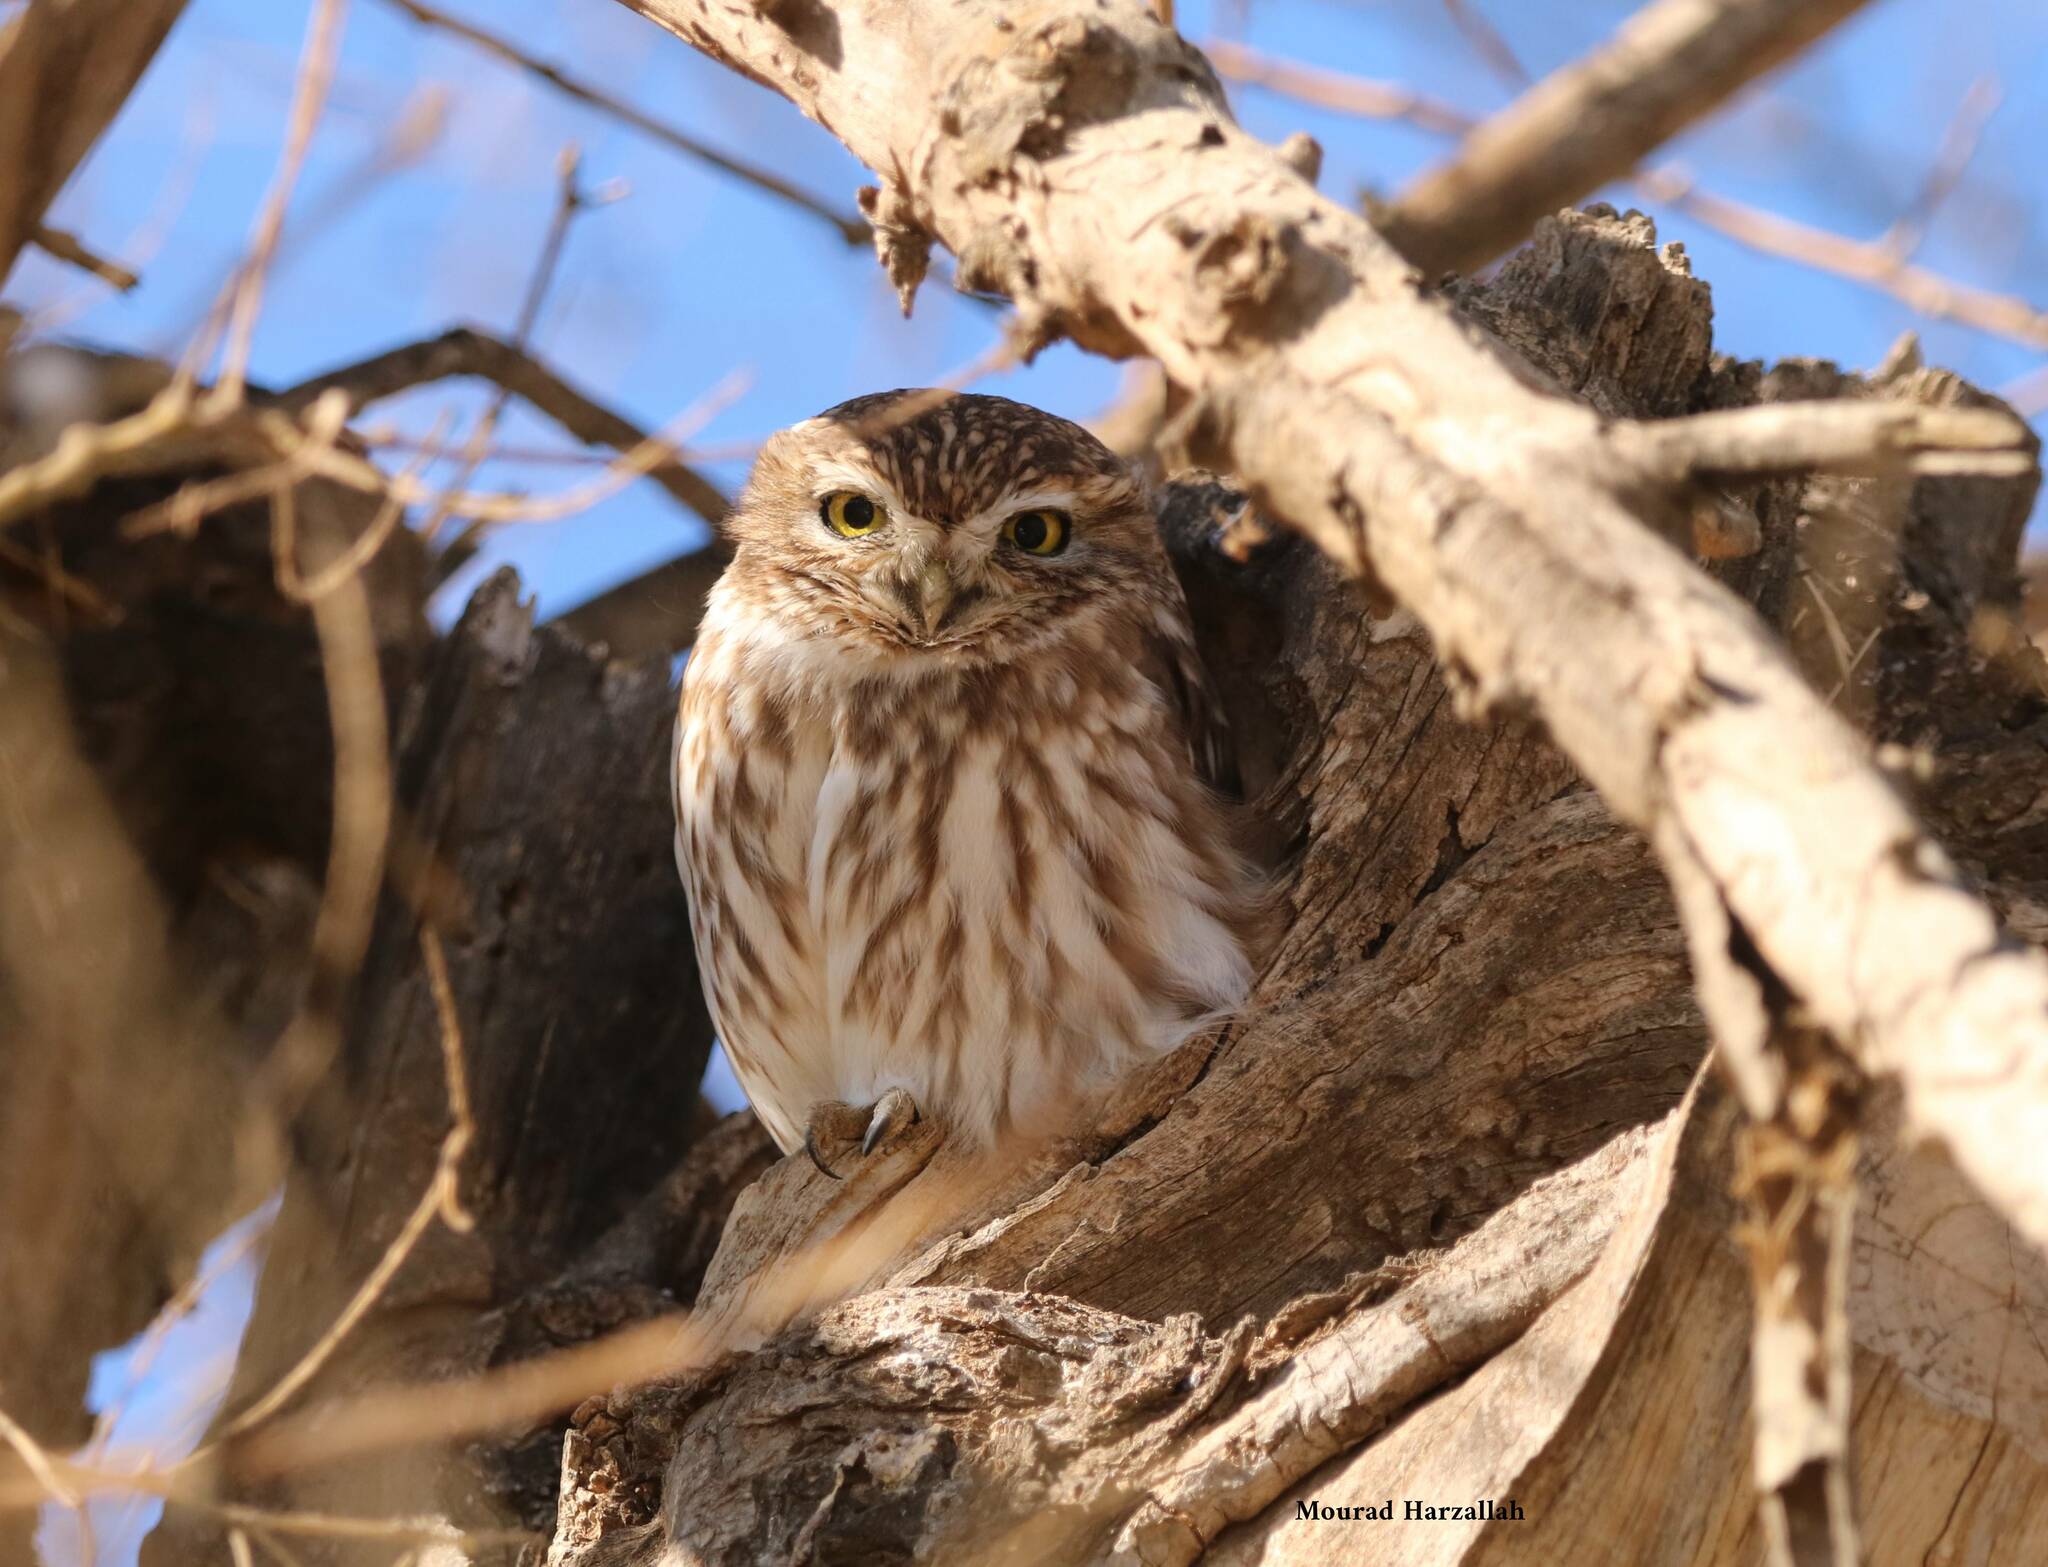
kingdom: Animalia
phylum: Chordata
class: Aves
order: Strigiformes
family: Strigidae
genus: Athene
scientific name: Athene noctua
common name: Little owl
